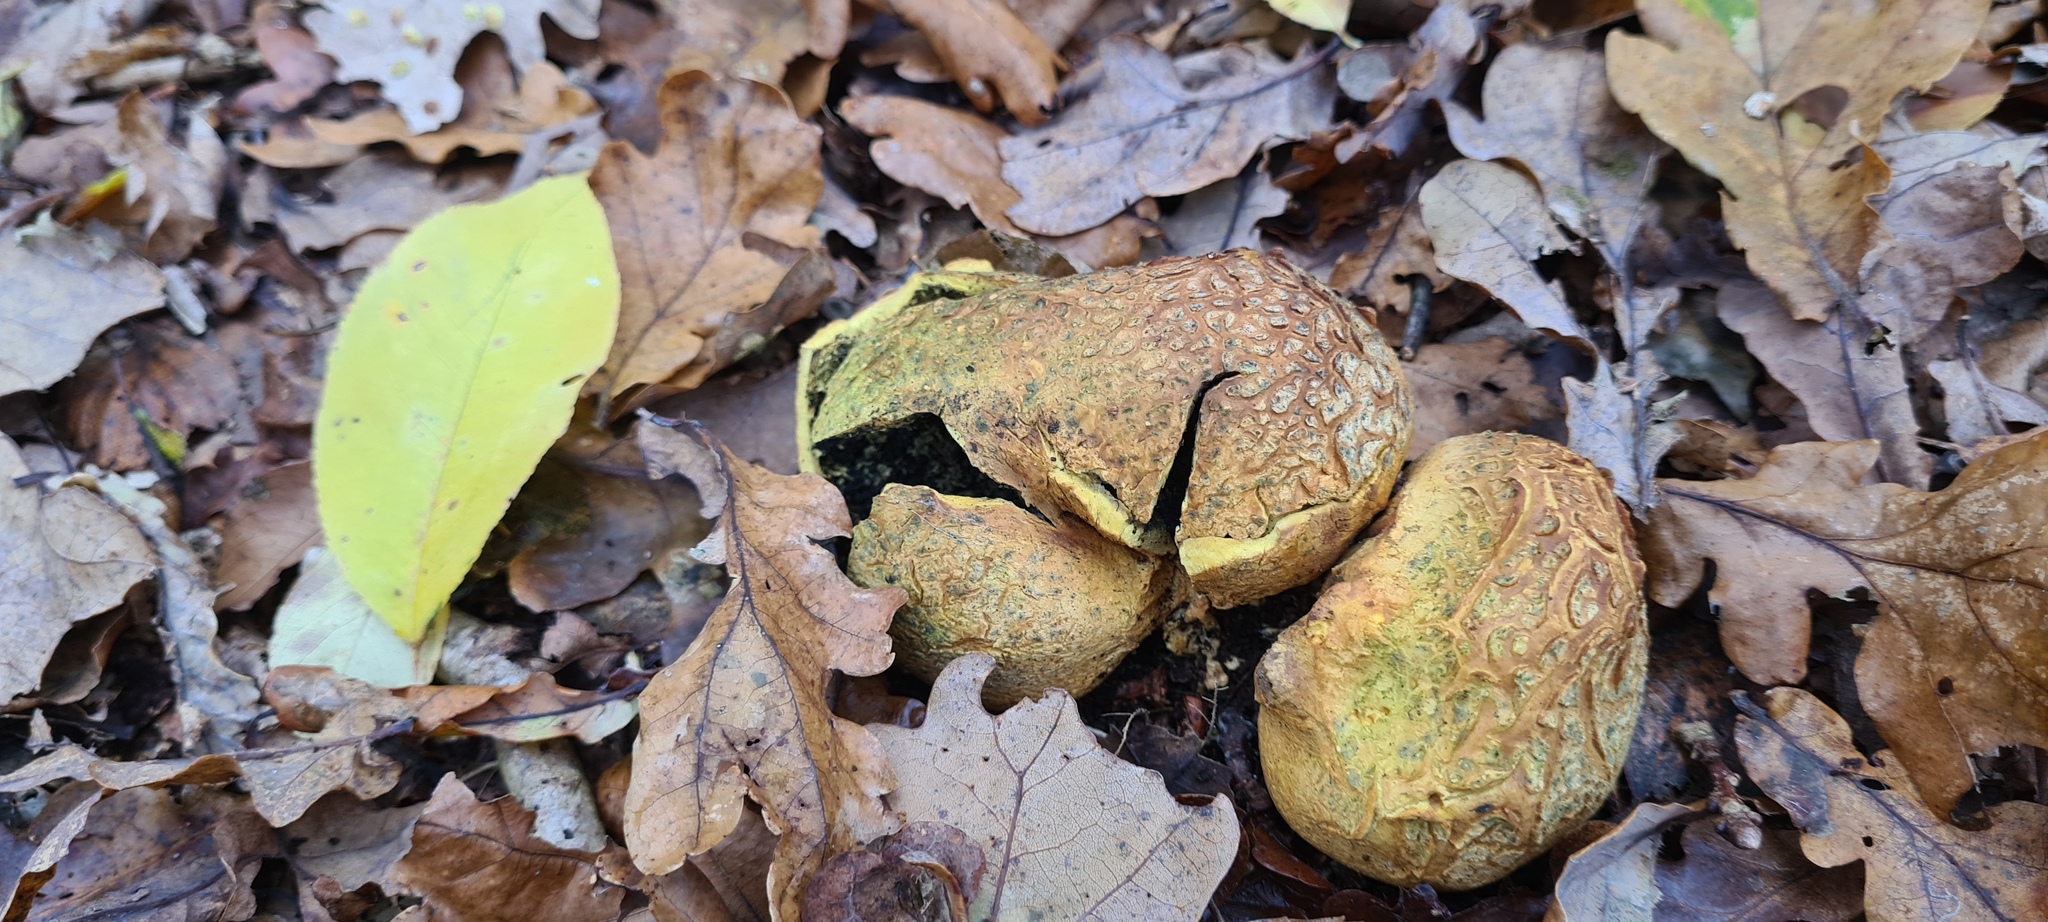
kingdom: Fungi
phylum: Basidiomycota
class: Agaricomycetes
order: Boletales
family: Sclerodermataceae
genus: Scleroderma
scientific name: Scleroderma citrinum
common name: Common earthball
